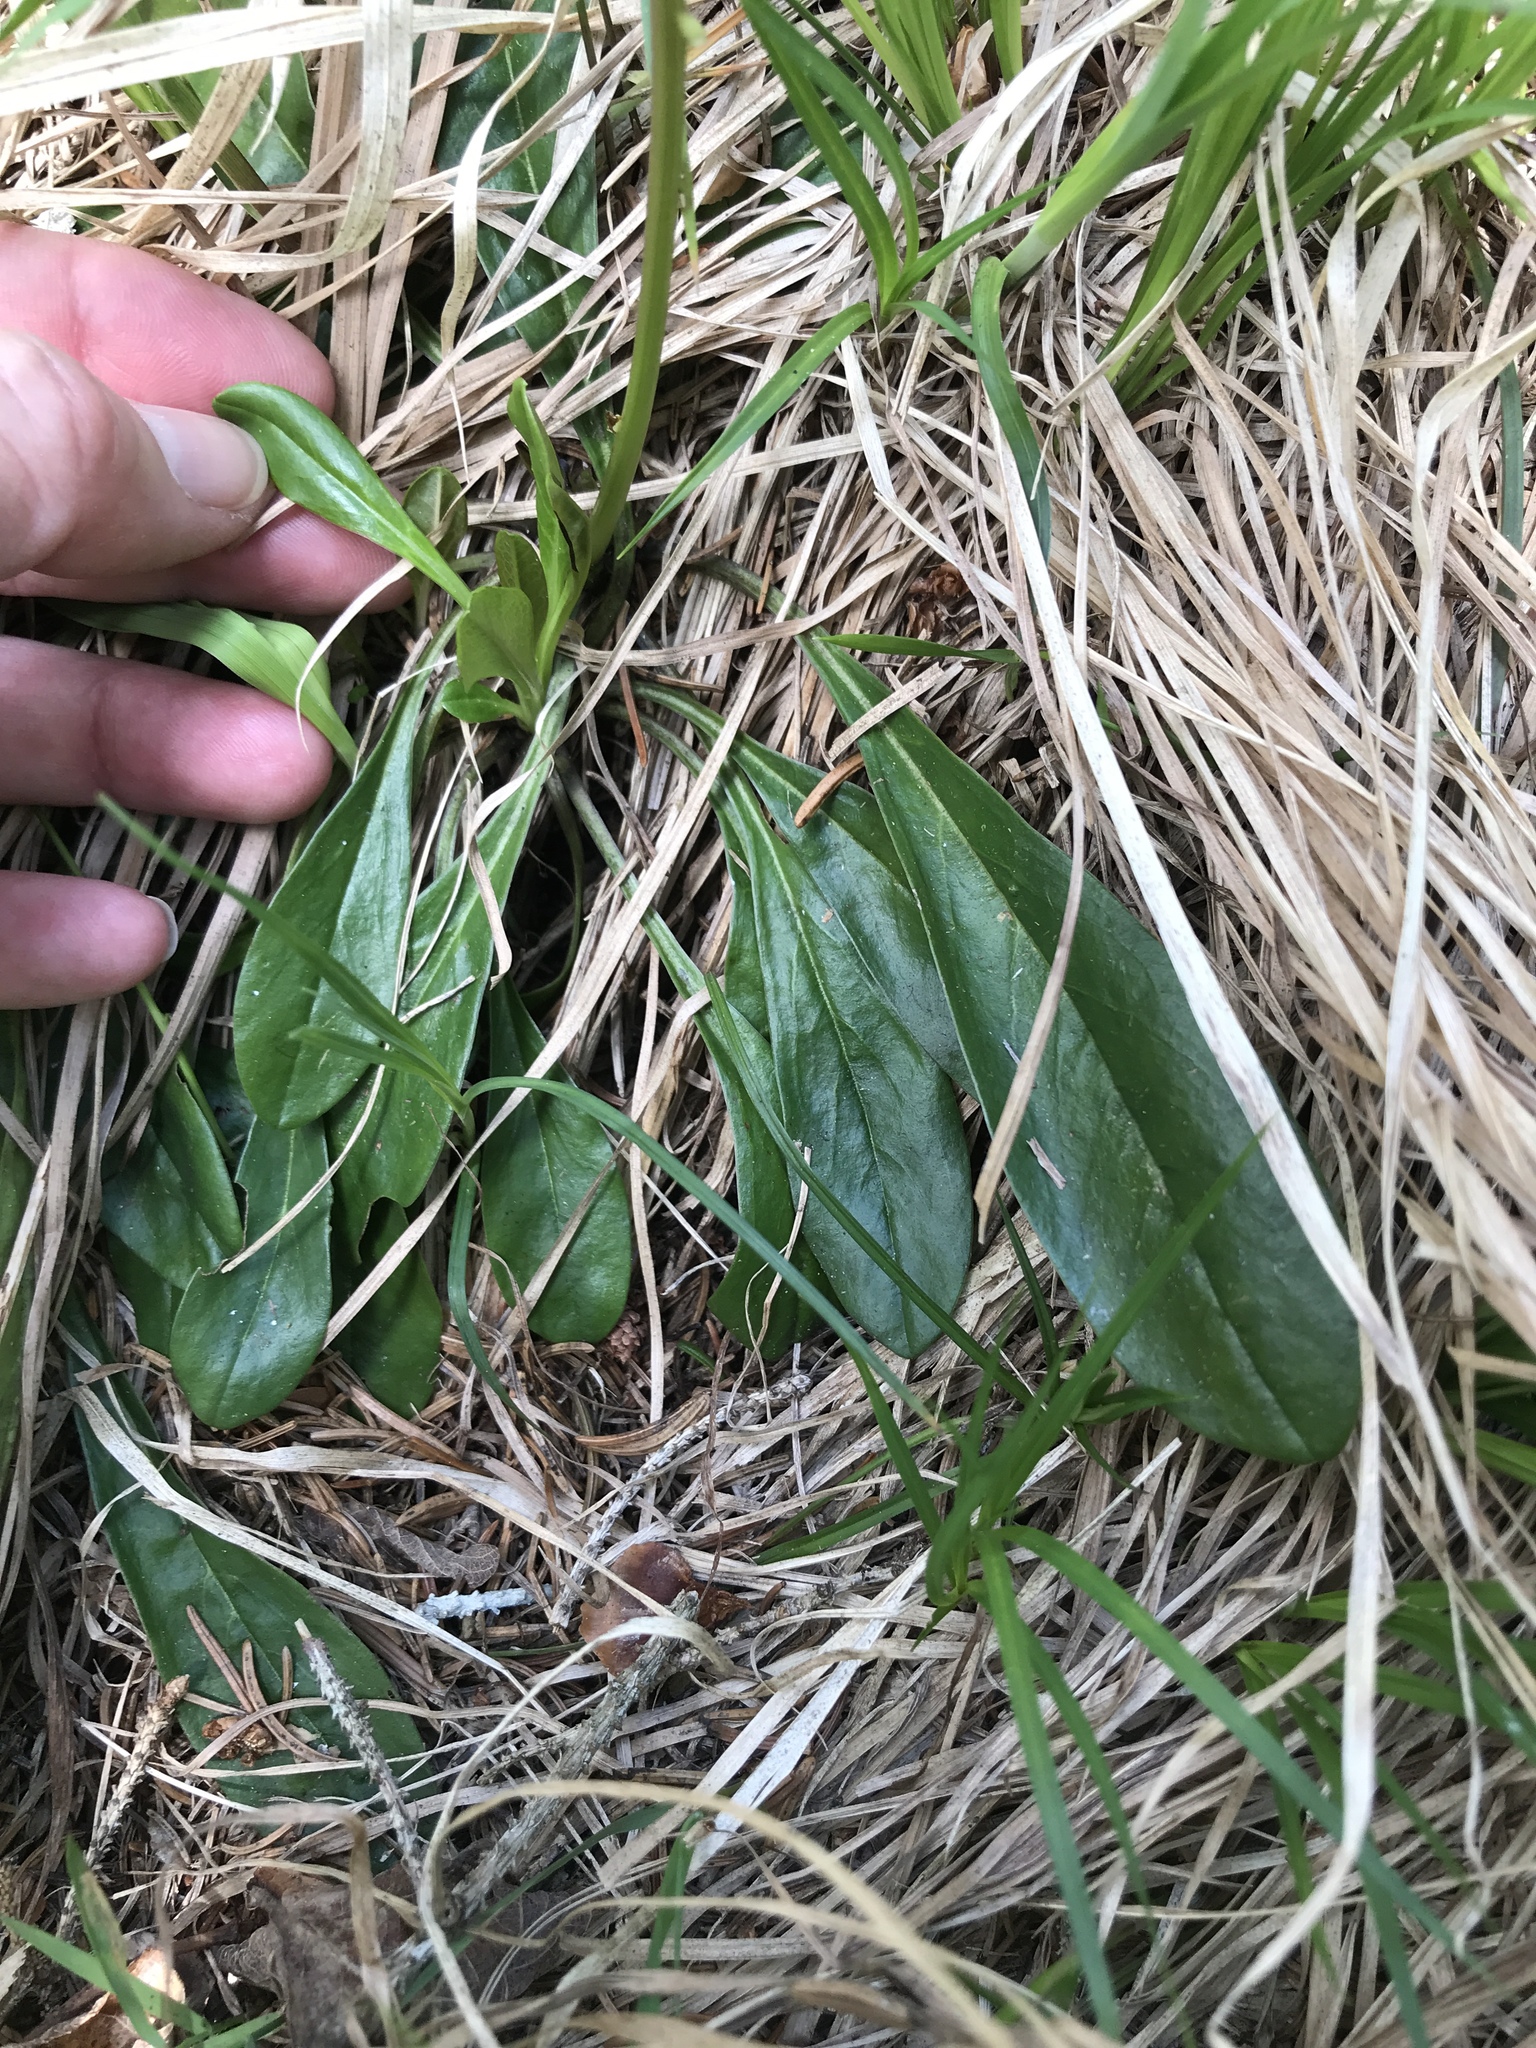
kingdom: Plantae
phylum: Tracheophyta
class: Magnoliopsida
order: Lamiales
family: Plantaginaceae
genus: Globularia
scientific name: Globularia nudicaulis
